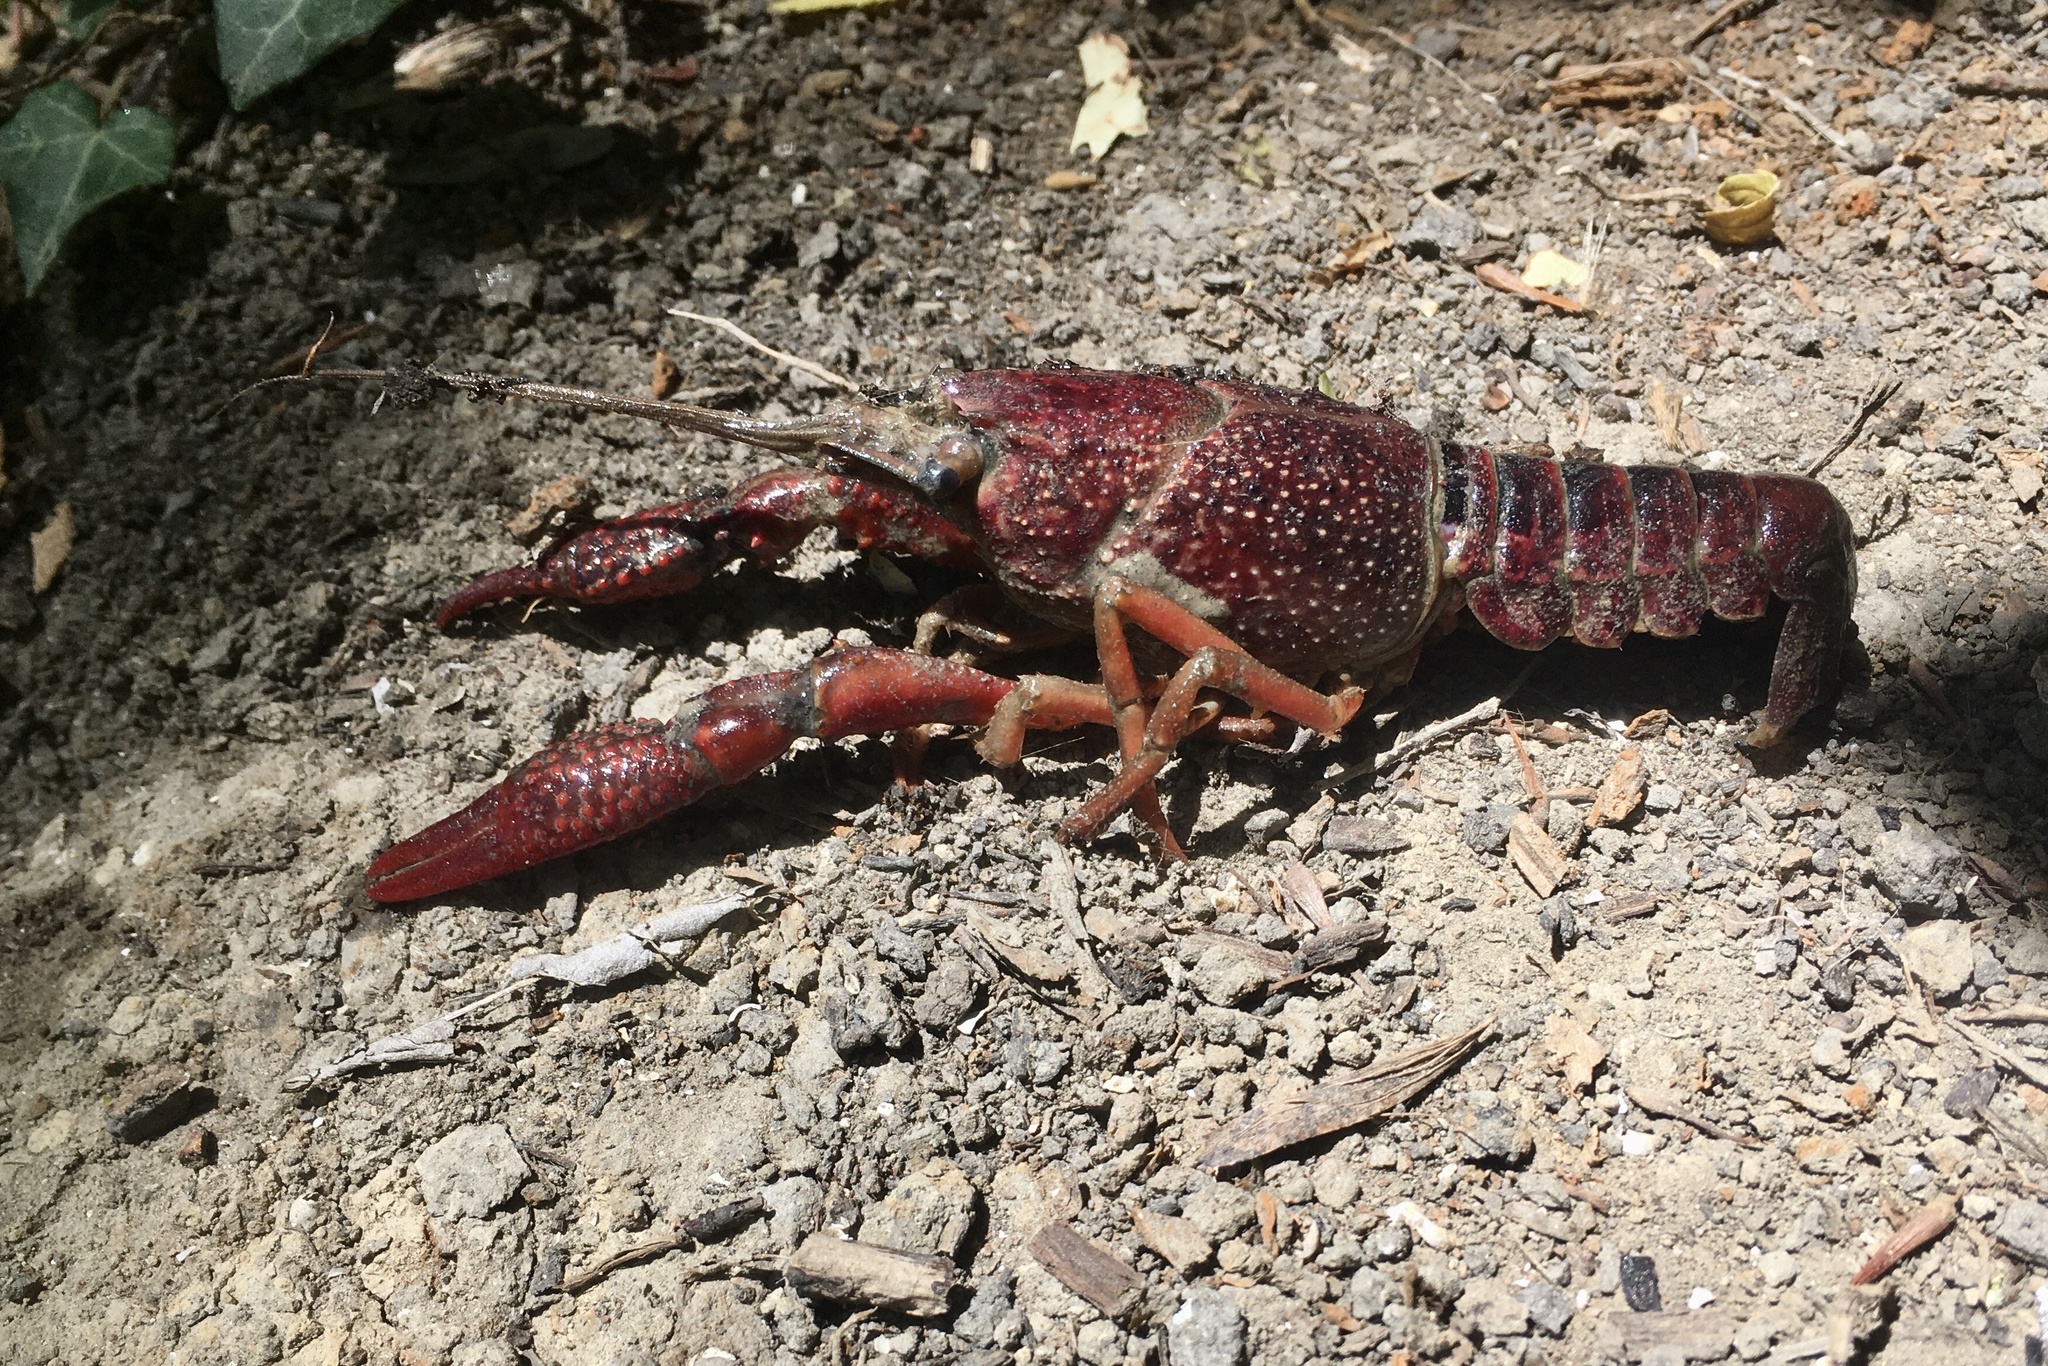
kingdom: Animalia
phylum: Arthropoda
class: Malacostraca
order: Decapoda
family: Cambaridae
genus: Procambarus
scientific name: Procambarus clarkii
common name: Red swamp crayfish
